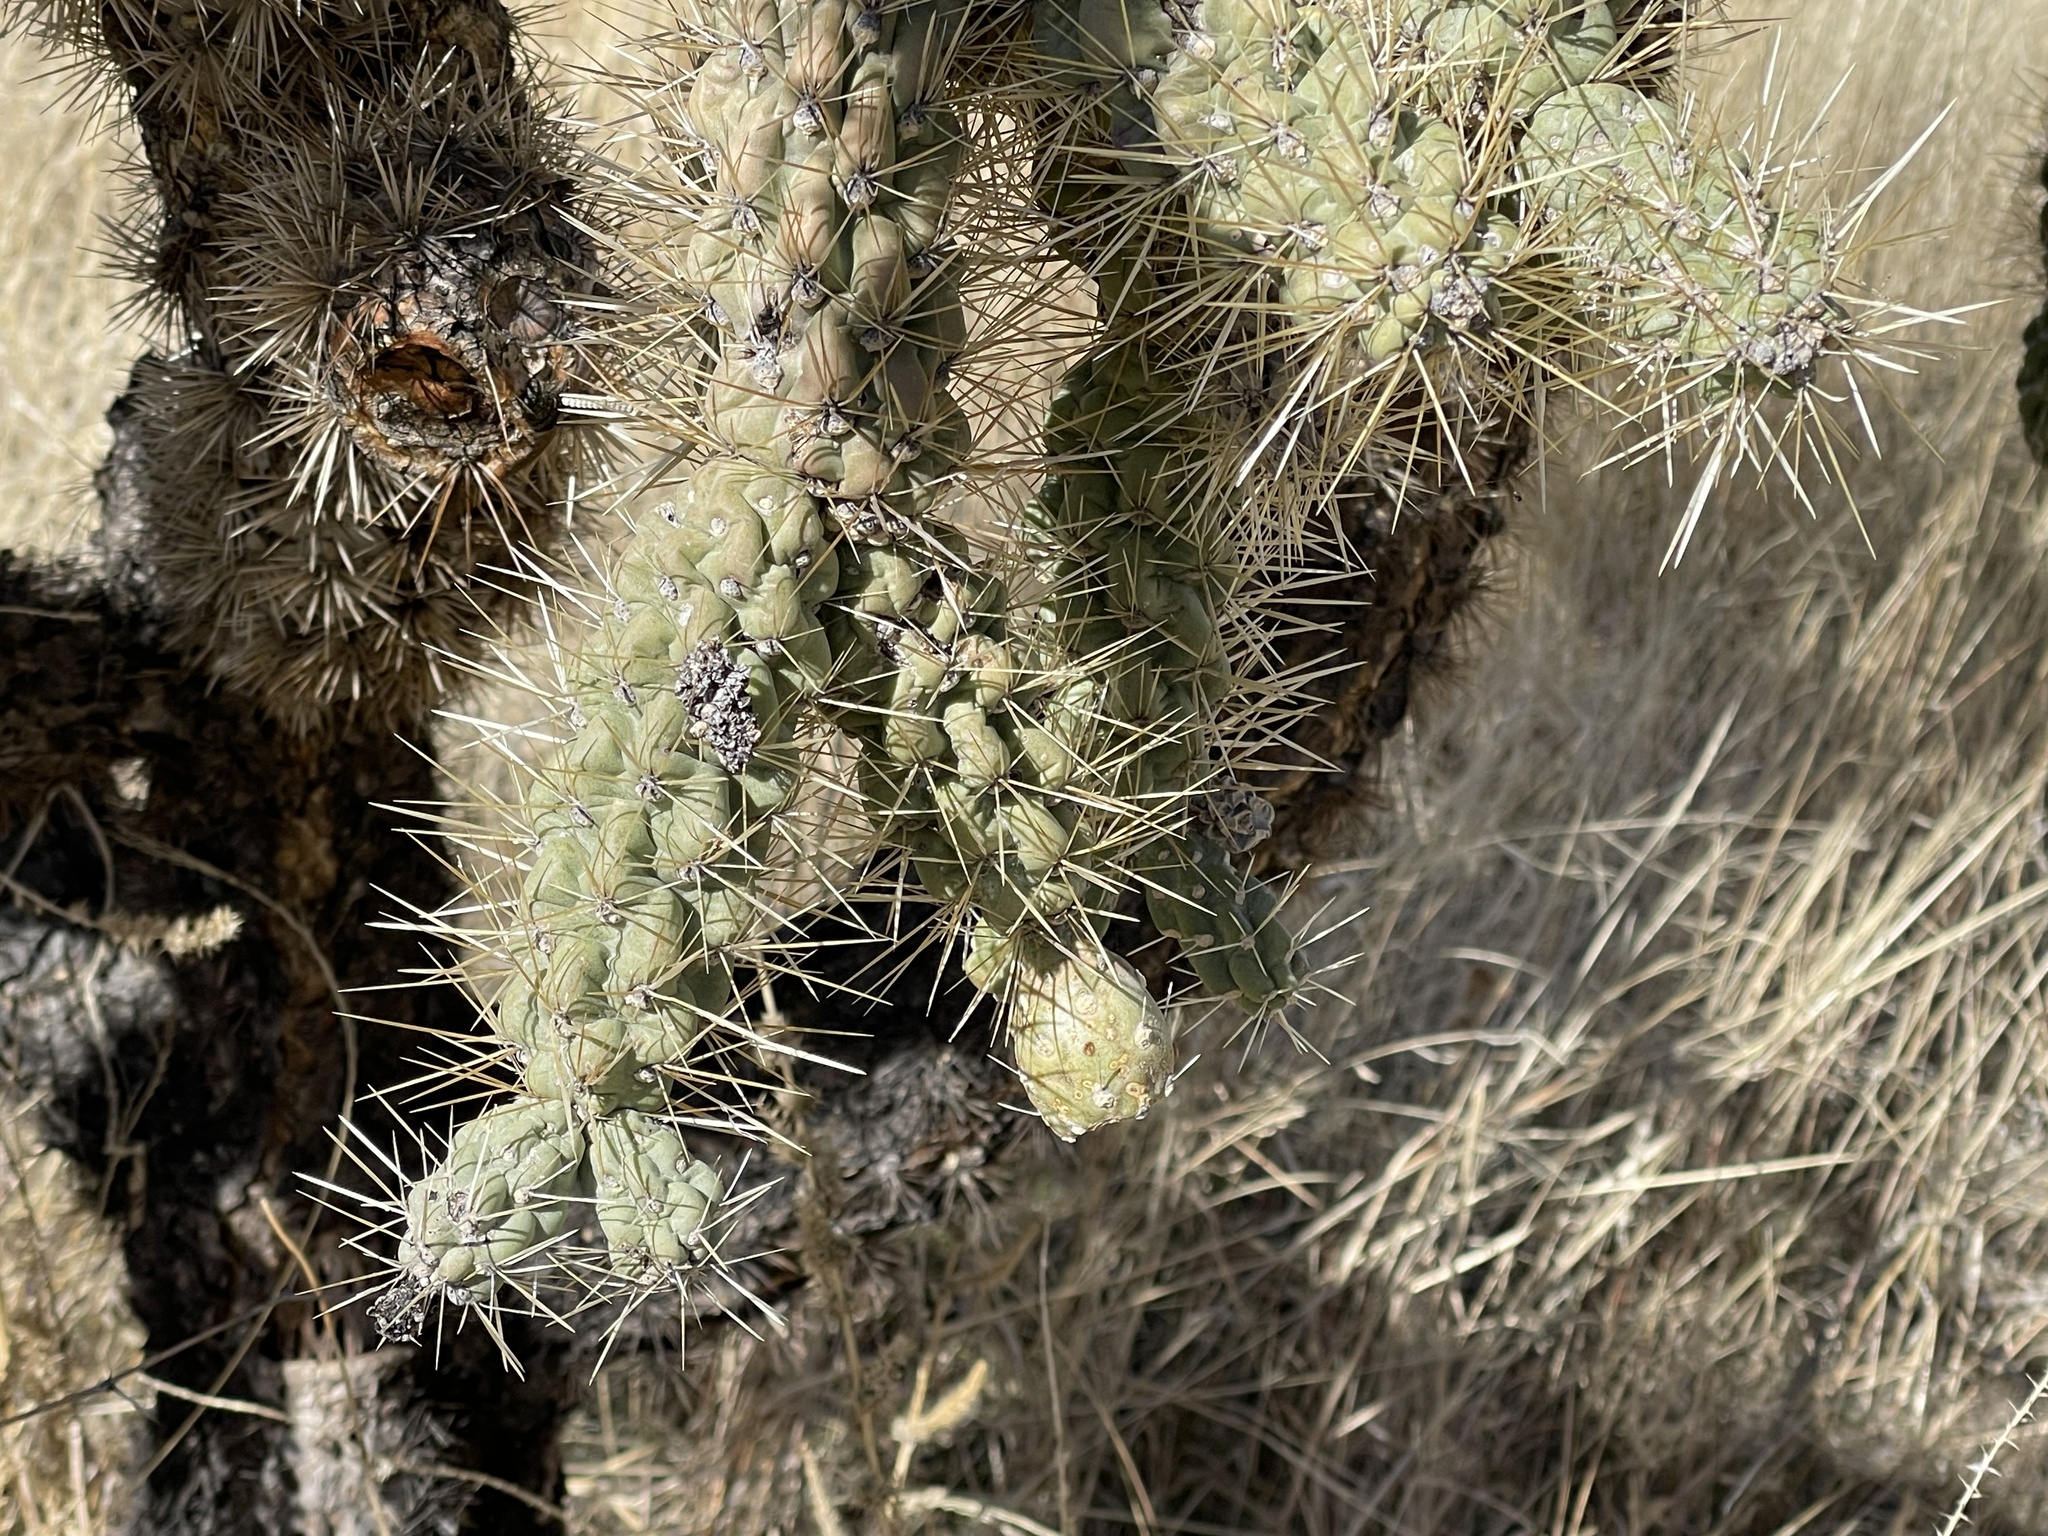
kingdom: Plantae
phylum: Tracheophyta
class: Magnoliopsida
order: Caryophyllales
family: Cactaceae
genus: Cylindropuntia
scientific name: Cylindropuntia fulgida
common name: Jumping cholla
